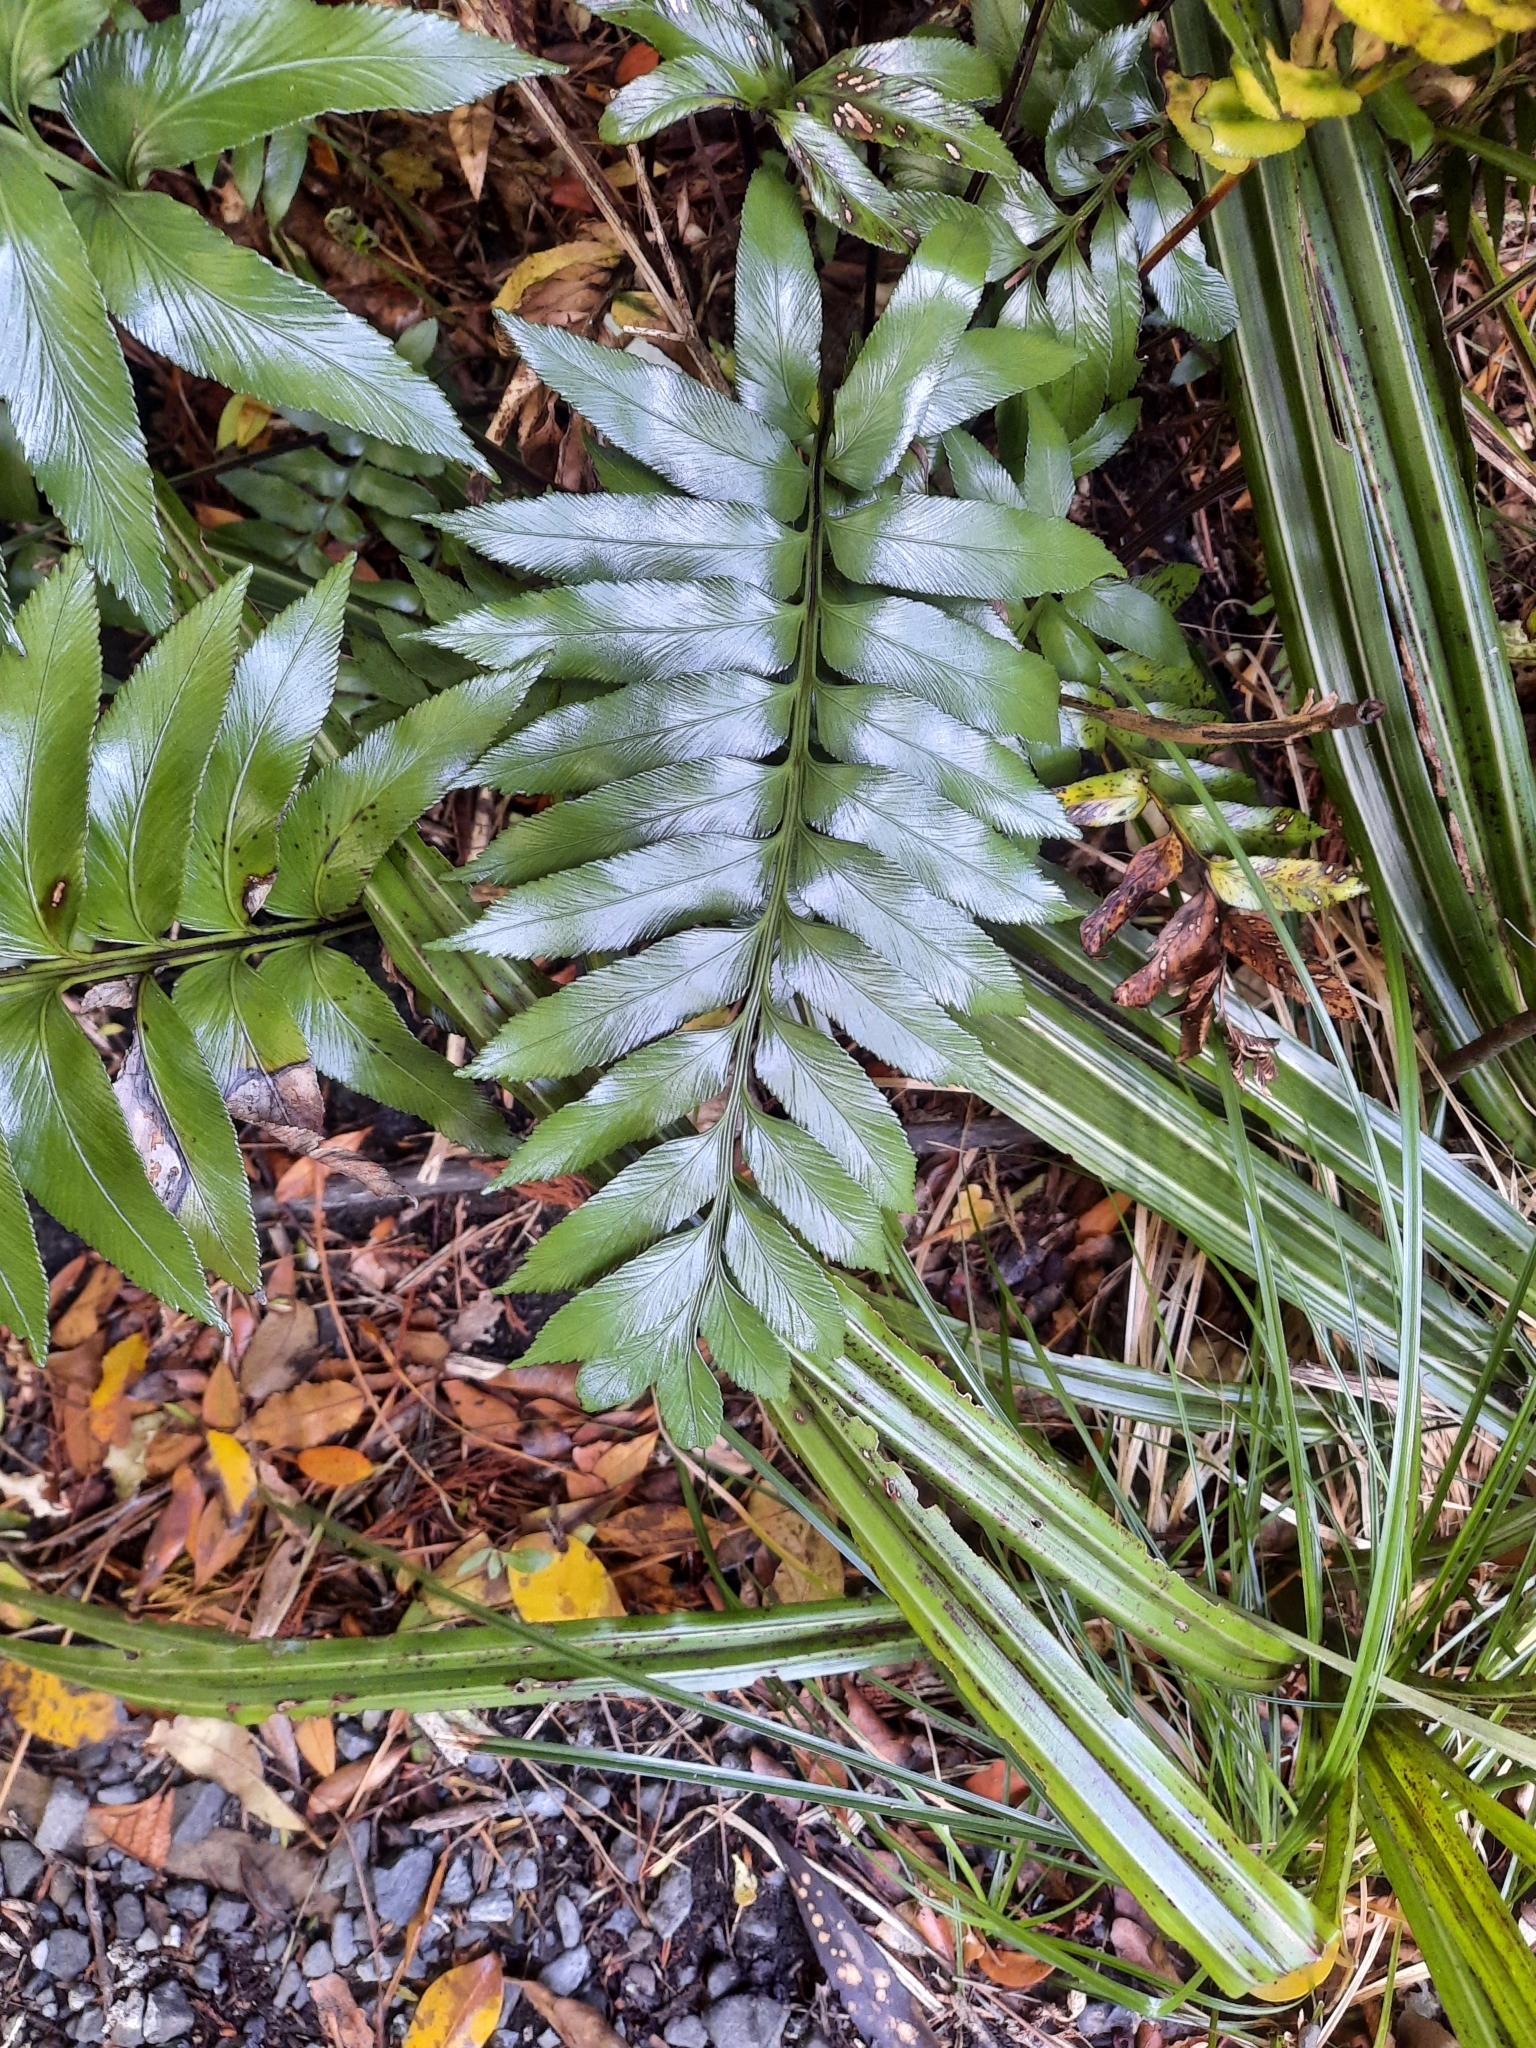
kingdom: Plantae
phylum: Tracheophyta
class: Polypodiopsida
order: Polypodiales
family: Aspleniaceae
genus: Asplenium
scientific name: Asplenium obtusatum
